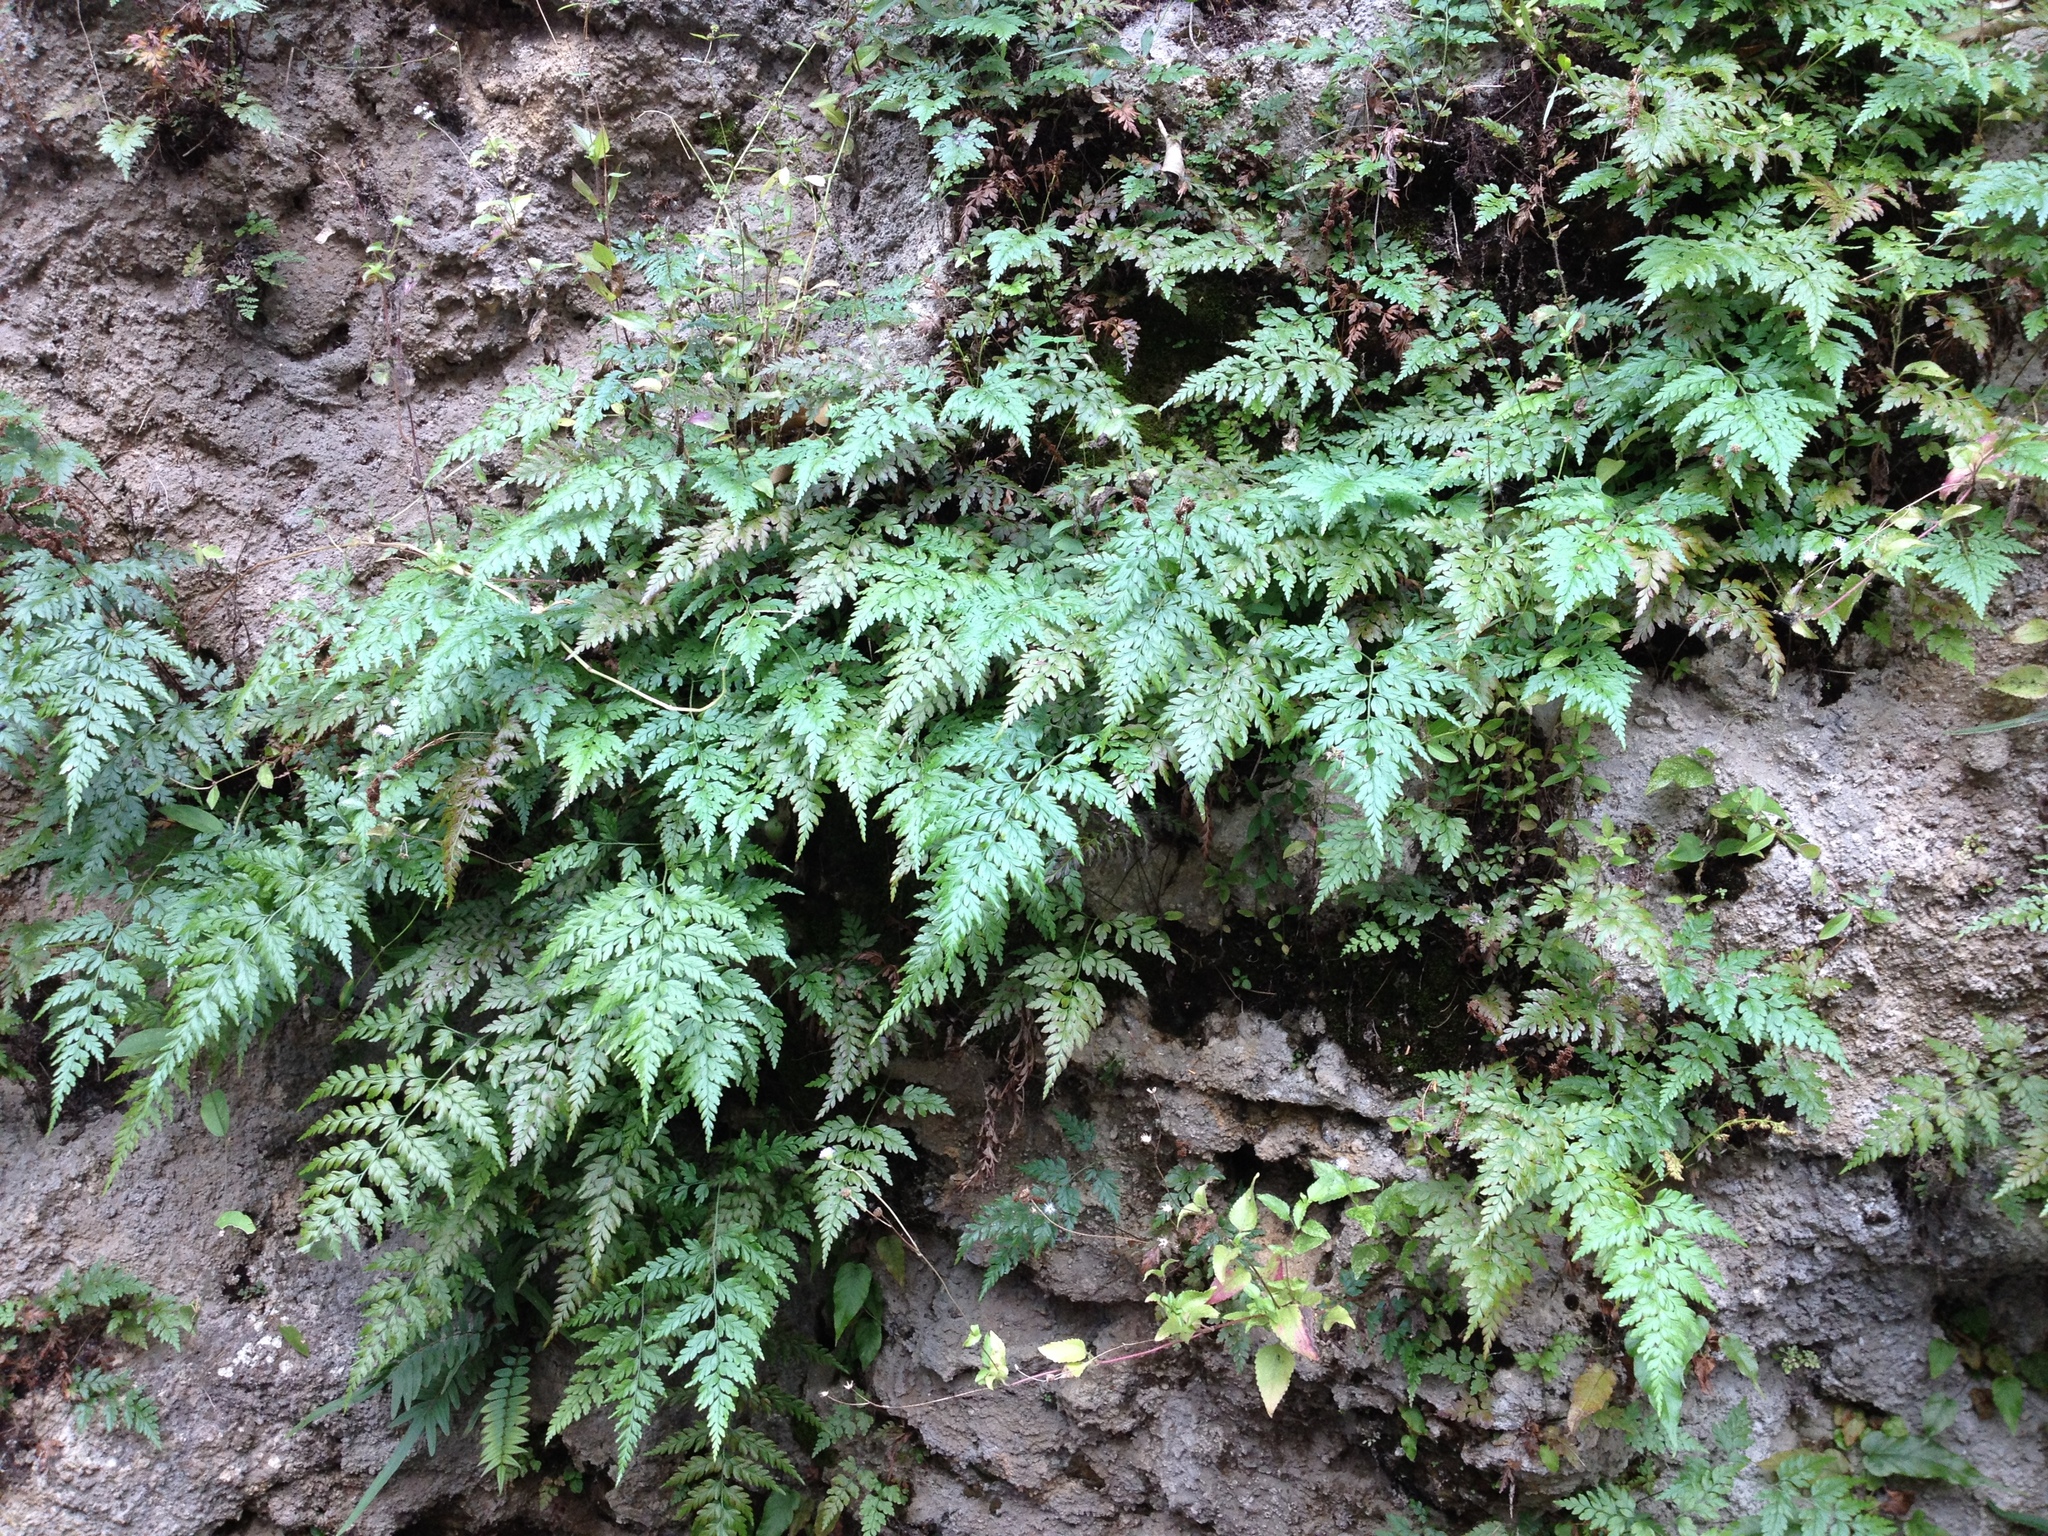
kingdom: Plantae
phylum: Tracheophyta
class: Polypodiopsida
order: Schizaeales
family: Anemiaceae
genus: Anemia
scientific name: Anemia adiantifolia
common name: Pine fern
